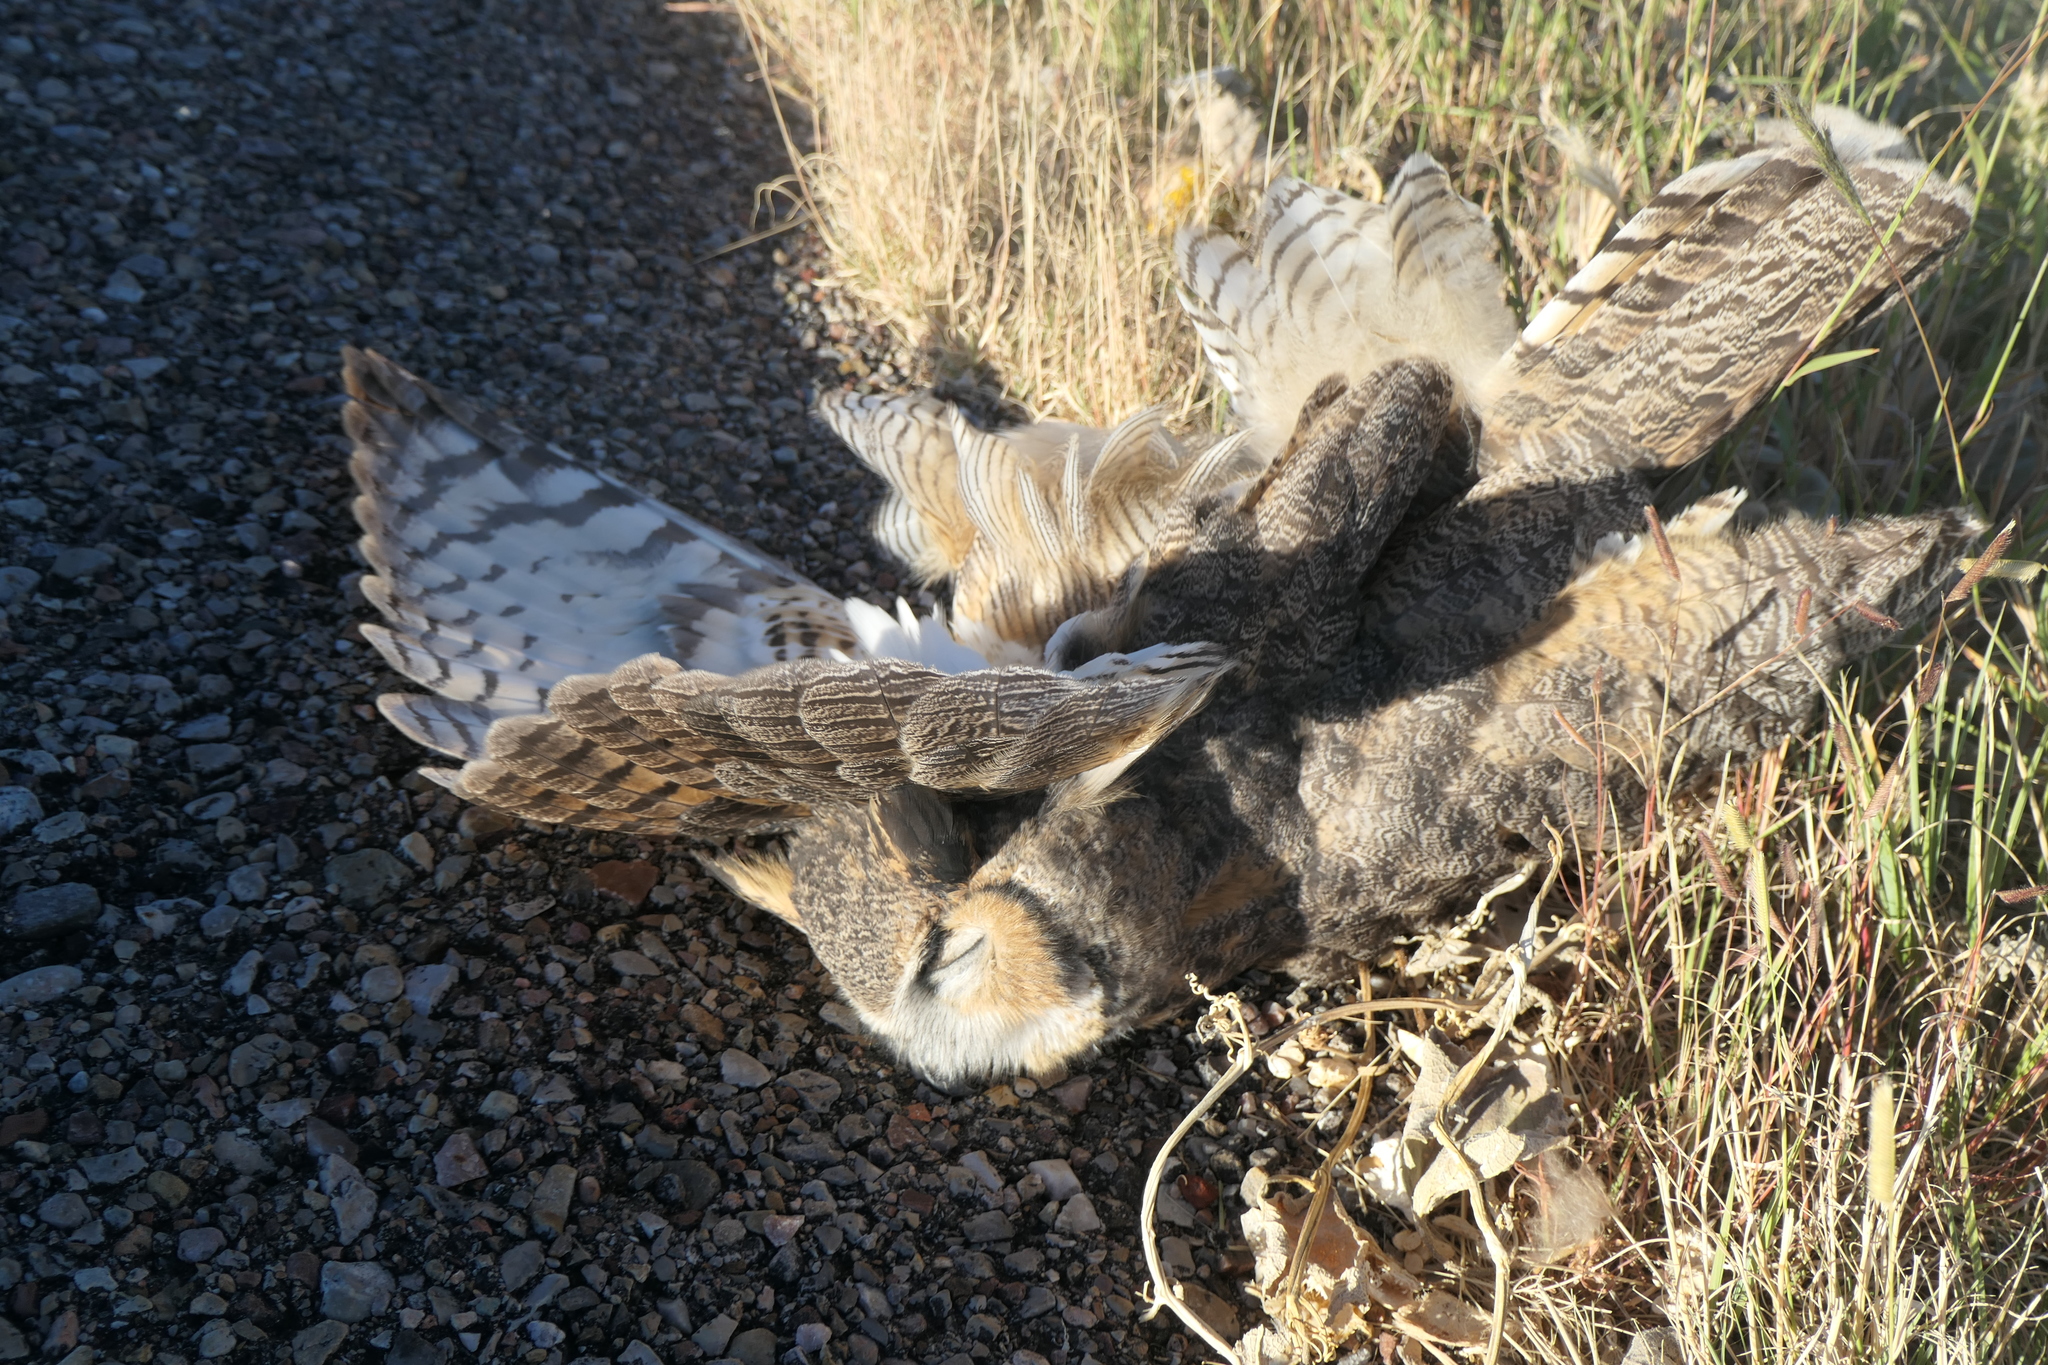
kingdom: Animalia
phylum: Chordata
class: Aves
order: Strigiformes
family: Strigidae
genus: Bubo
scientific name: Bubo virginianus
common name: Great horned owl
